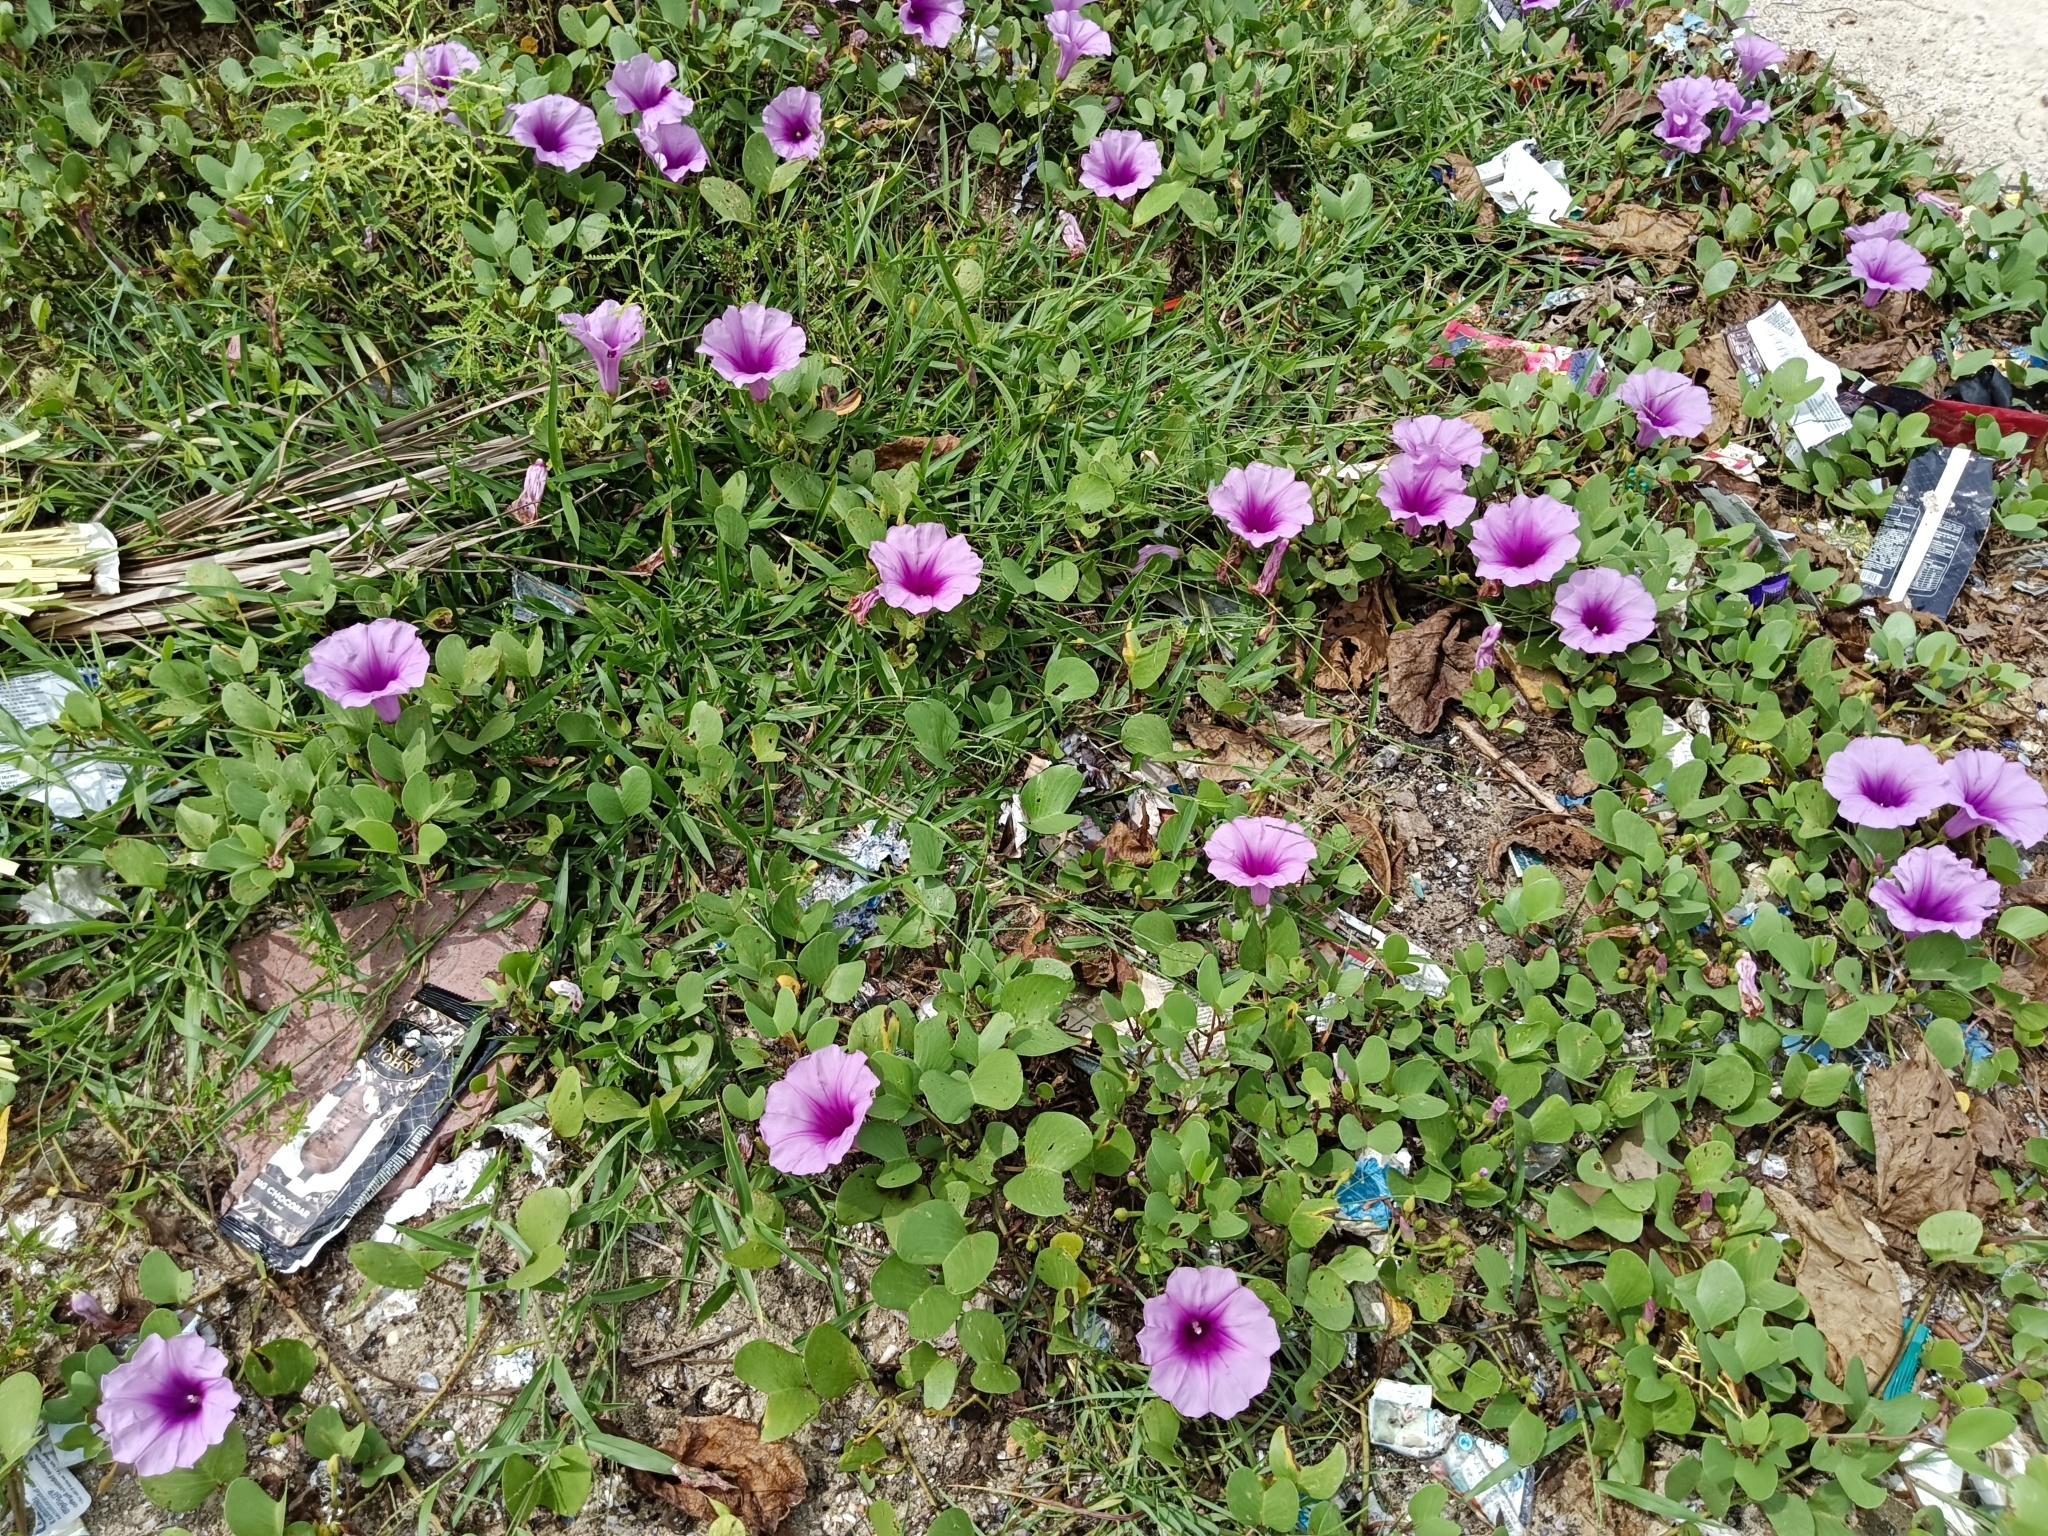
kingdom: Plantae
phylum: Tracheophyta
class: Magnoliopsida
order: Solanales
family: Convolvulaceae
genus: Ipomoea
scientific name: Ipomoea pes-caprae
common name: Beach morning glory
